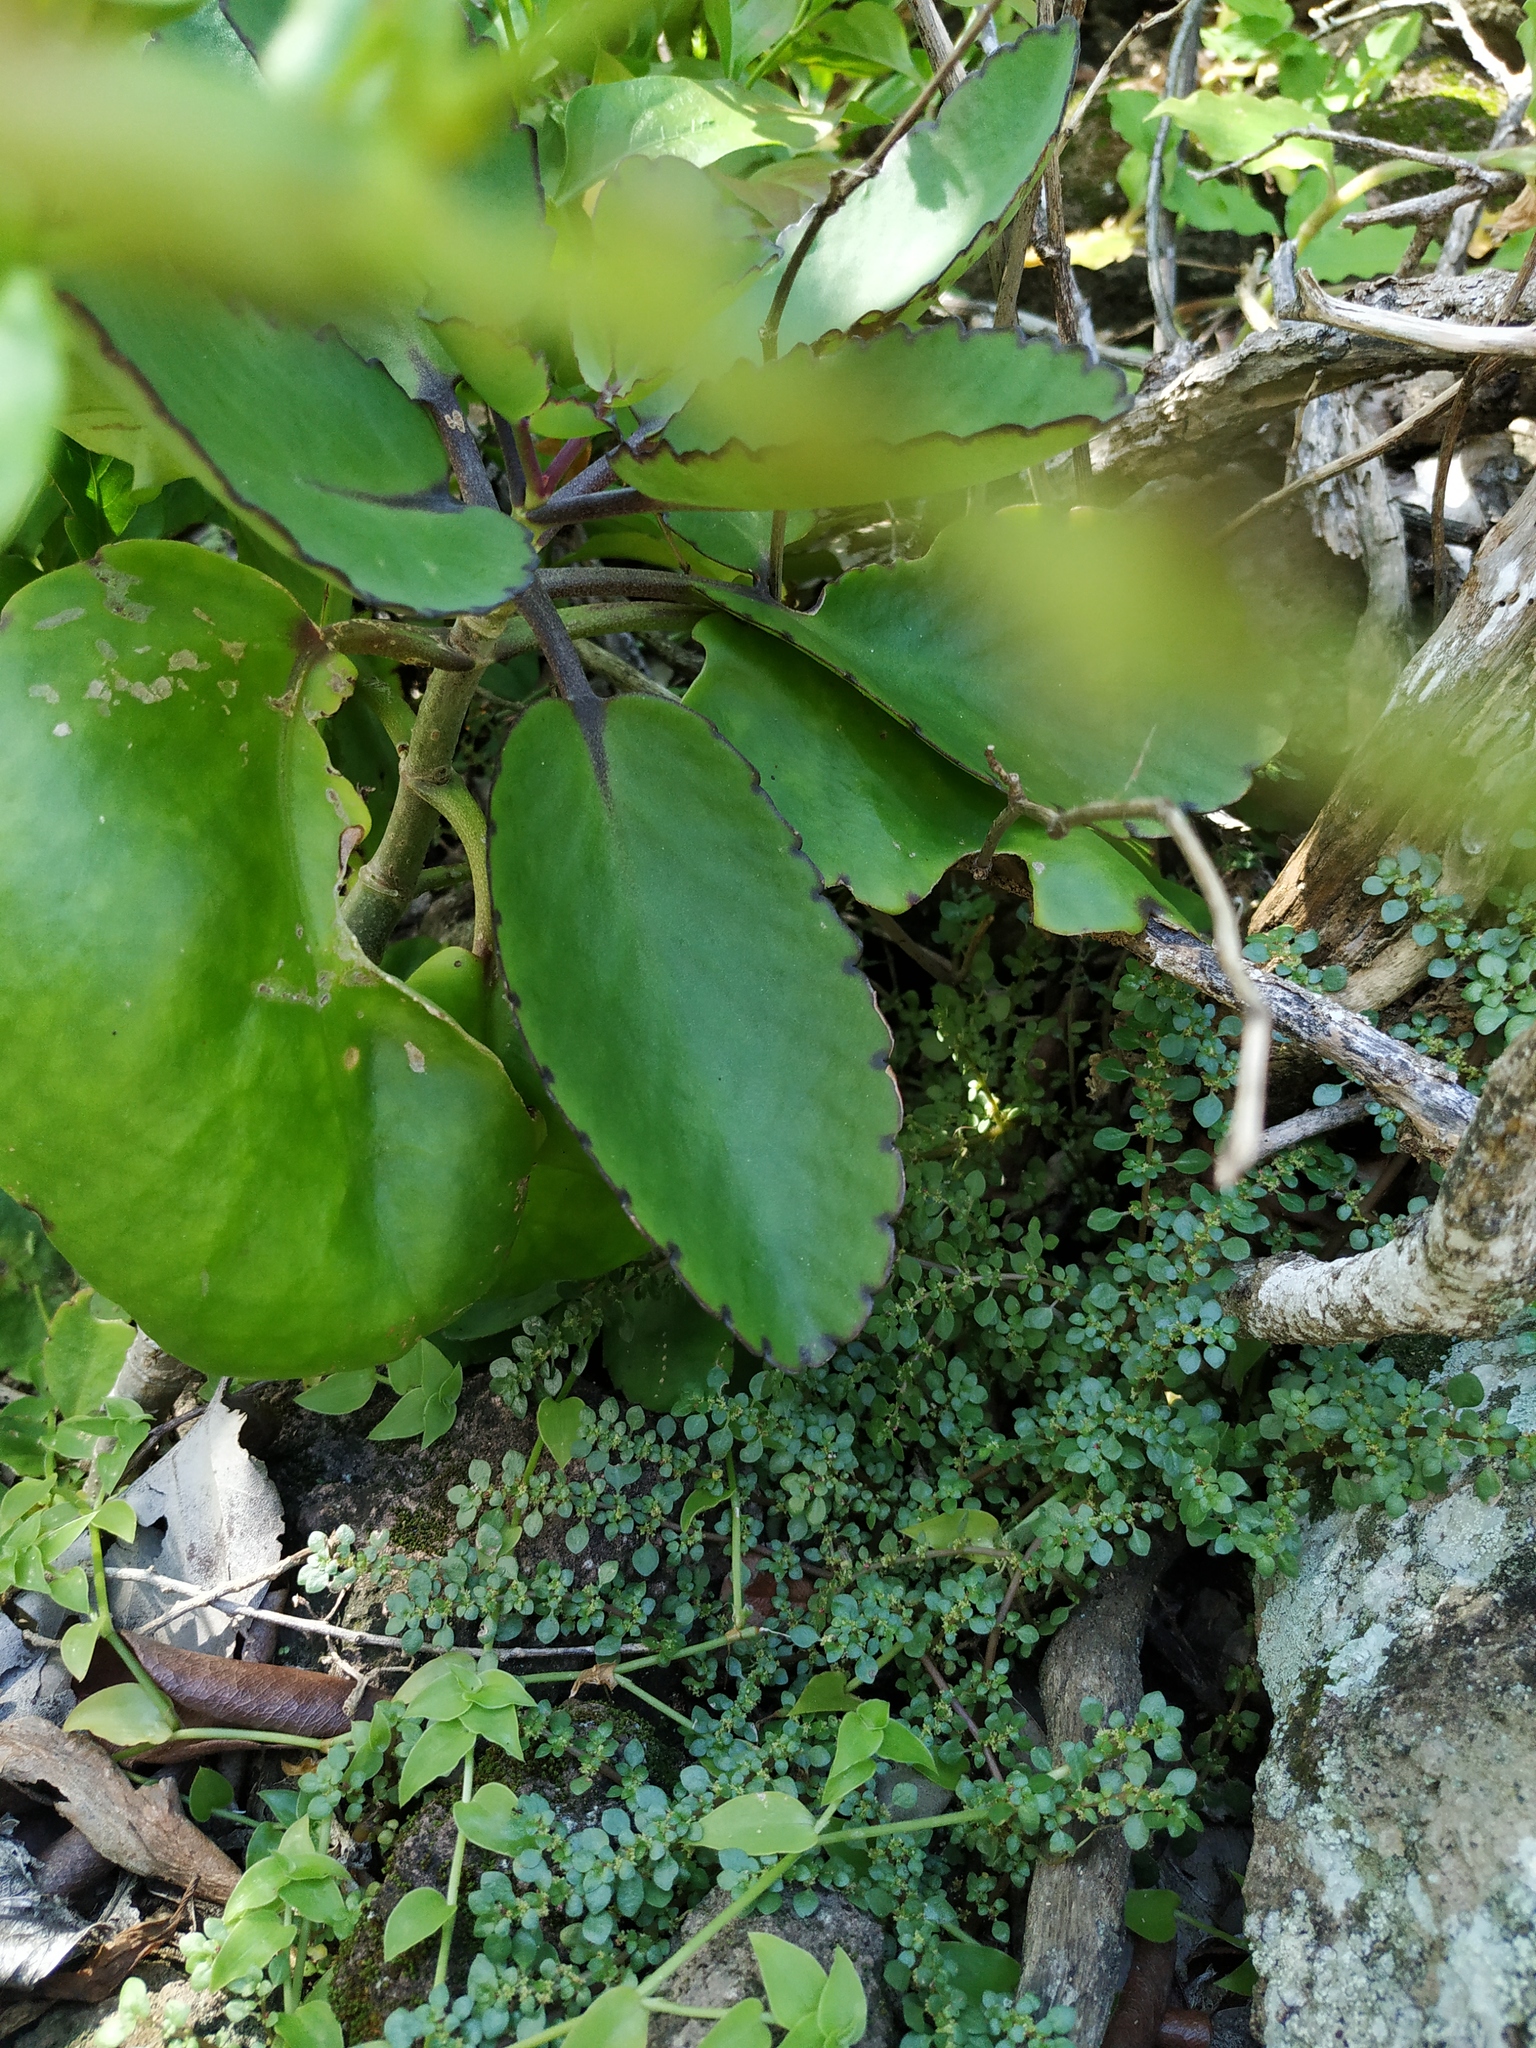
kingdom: Plantae
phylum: Tracheophyta
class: Magnoliopsida
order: Saxifragales
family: Crassulaceae
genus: Kalanchoe
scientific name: Kalanchoe pinnata
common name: Cathedral bells
